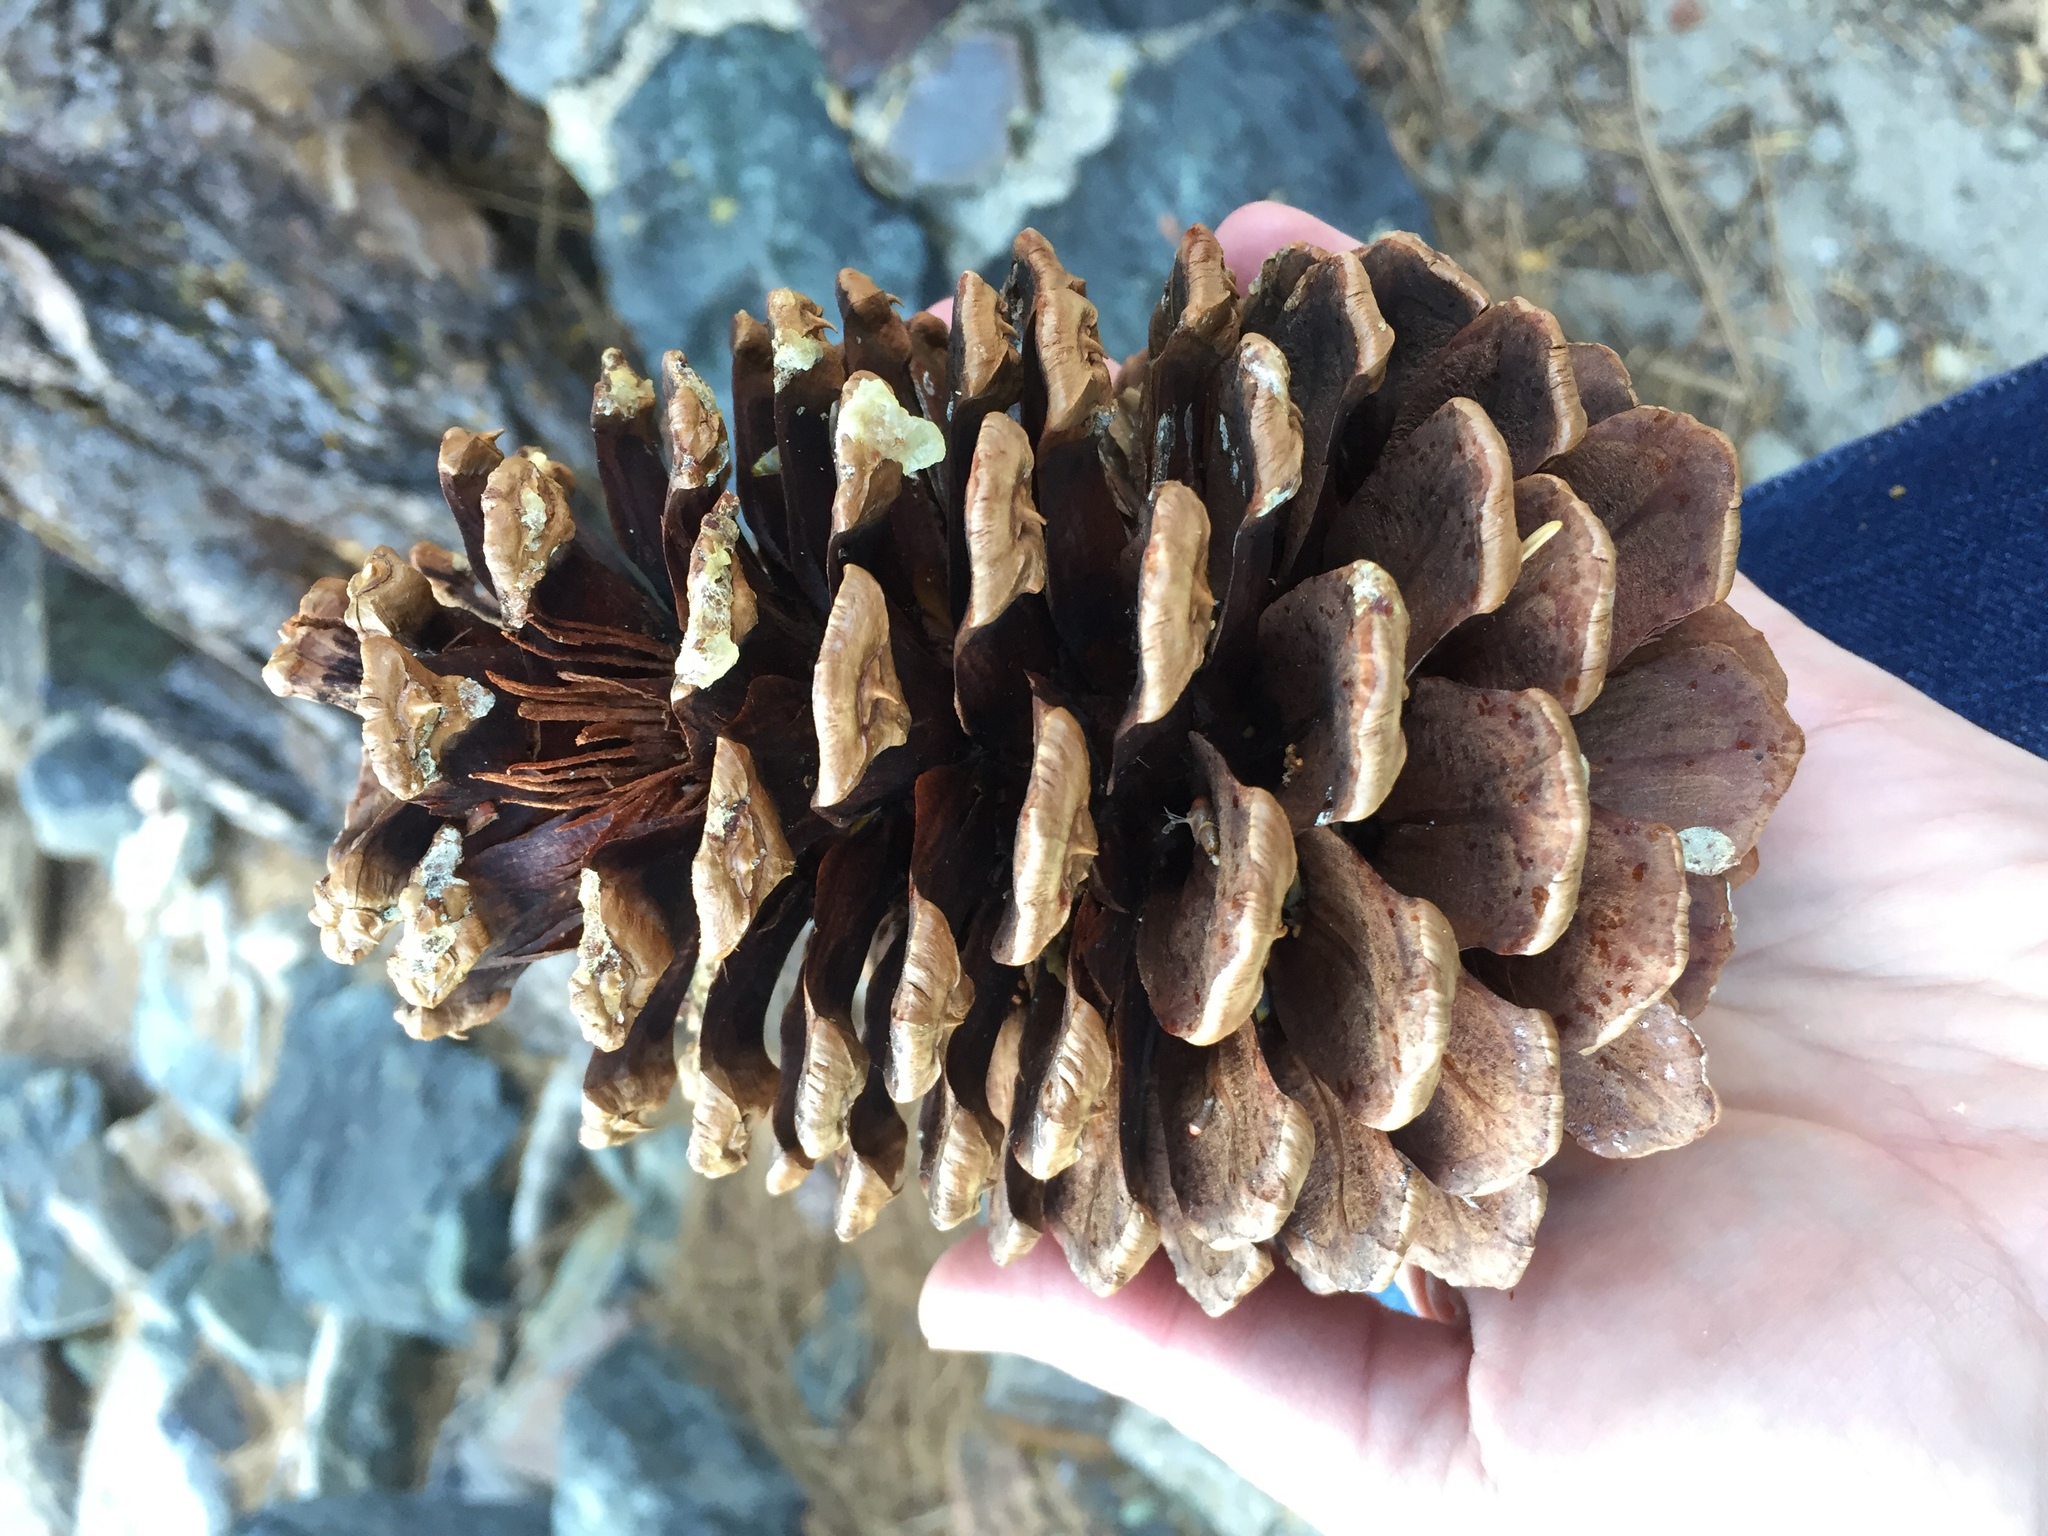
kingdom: Plantae
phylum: Tracheophyta
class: Pinopsida
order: Pinales
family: Pinaceae
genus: Pinus
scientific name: Pinus jeffreyi
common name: Jeffrey pine
